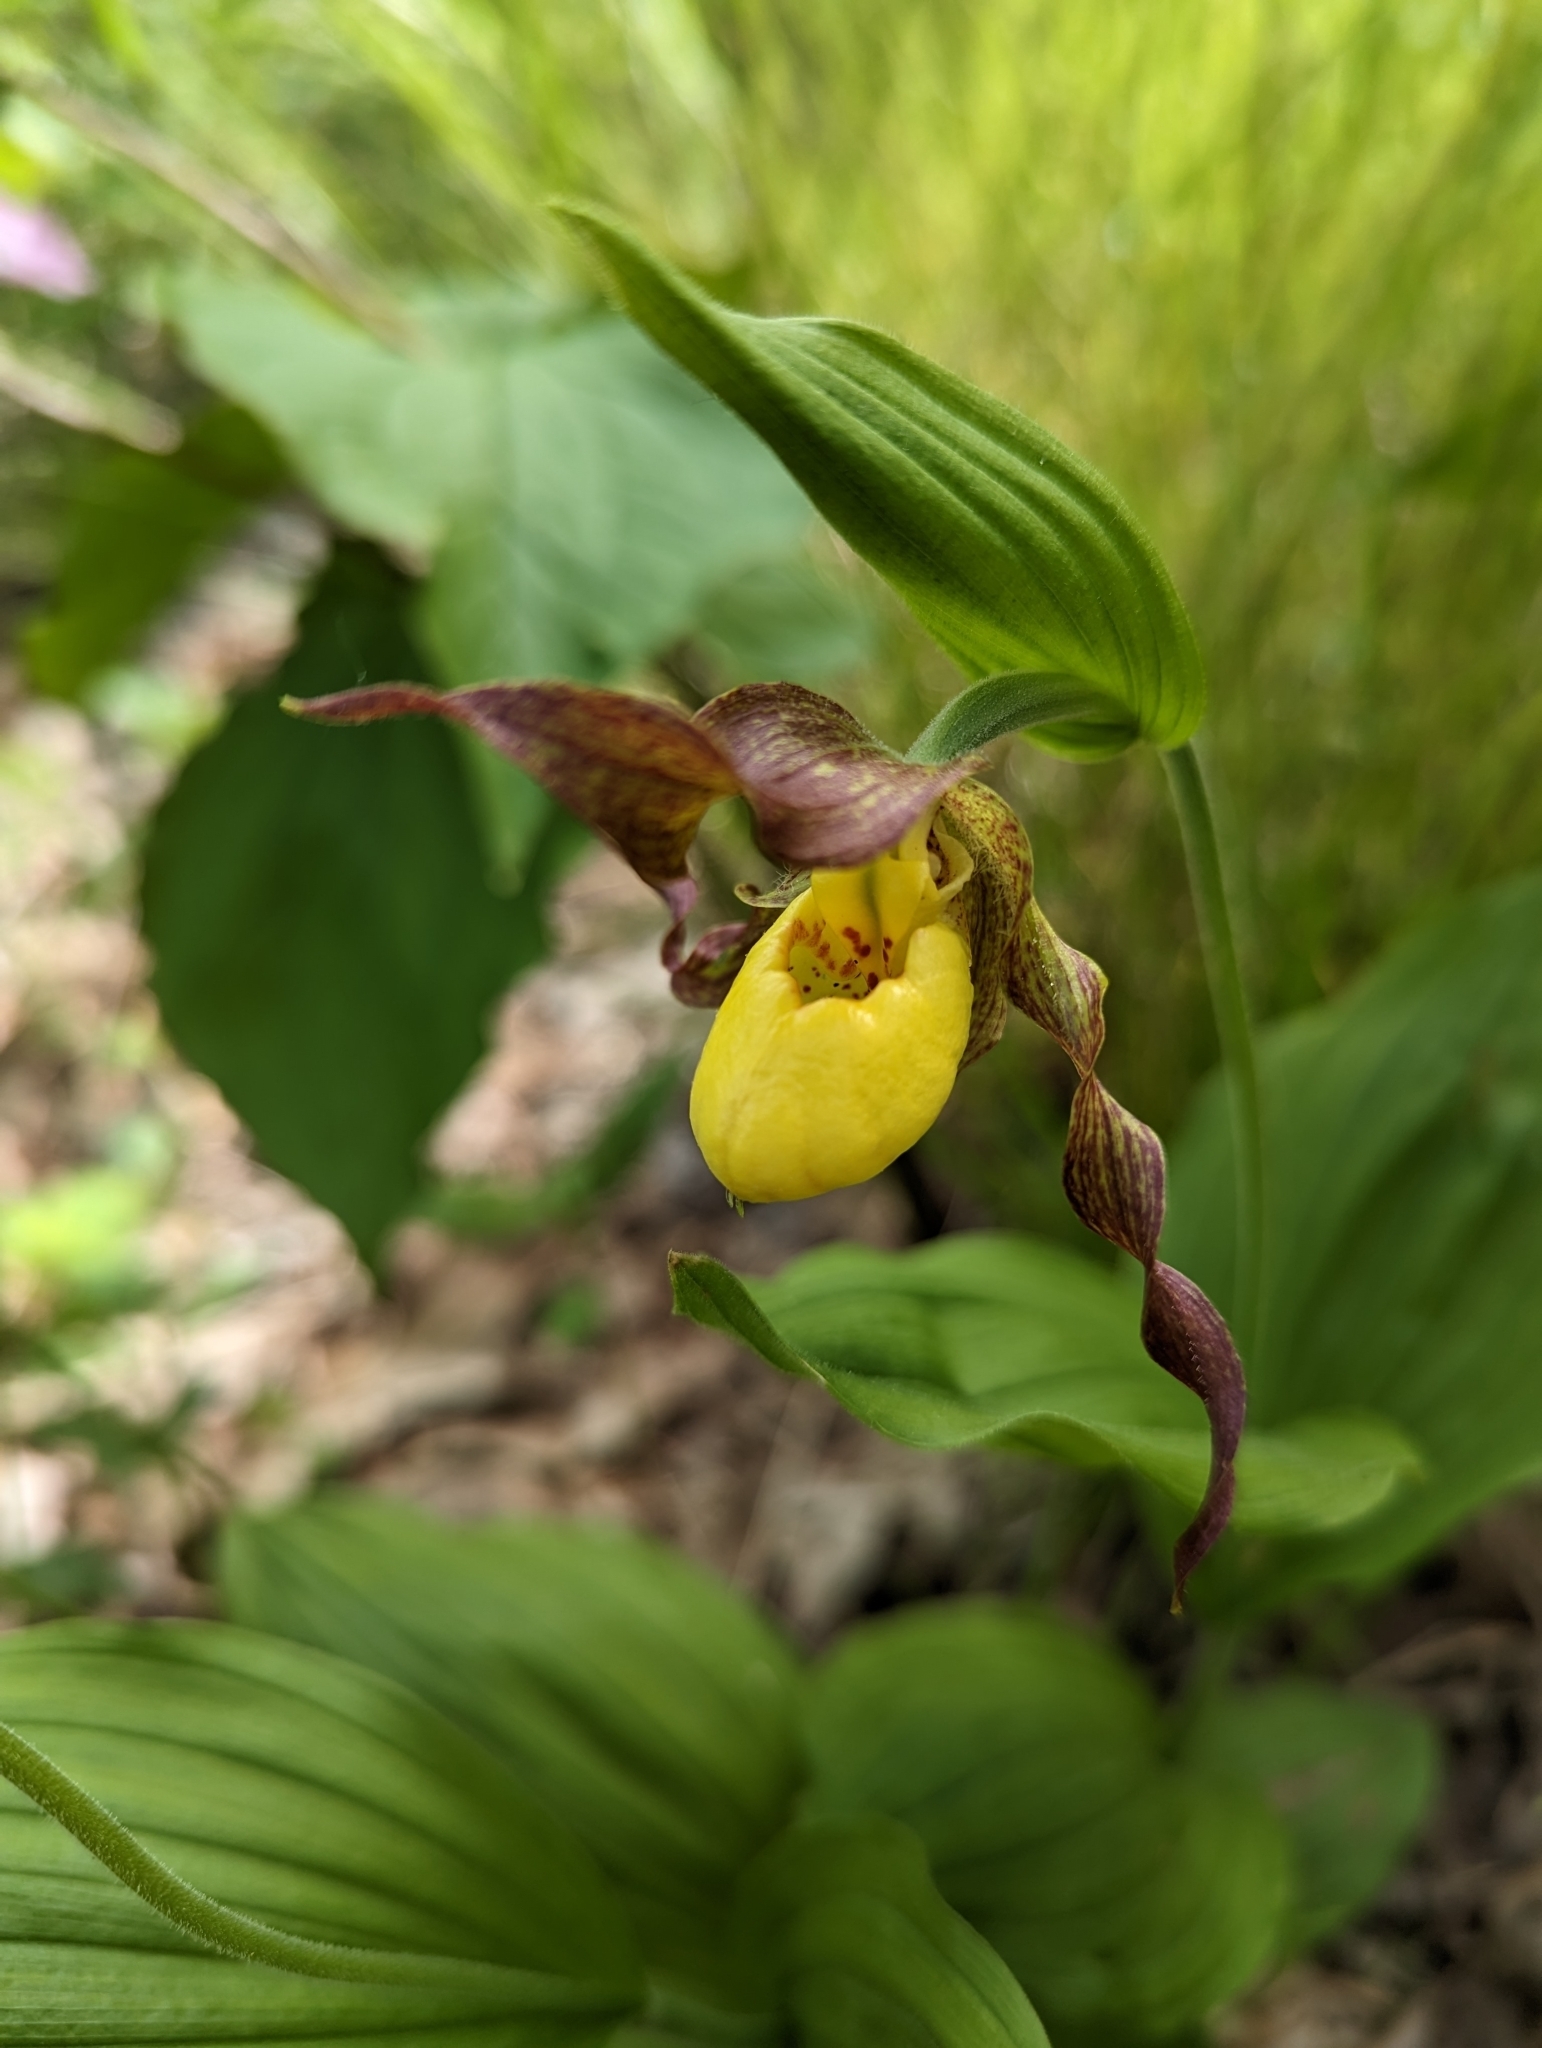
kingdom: Plantae
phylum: Tracheophyta
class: Liliopsida
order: Asparagales
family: Orchidaceae
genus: Cypripedium
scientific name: Cypripedium parviflorum
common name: American yellow lady's-slipper
